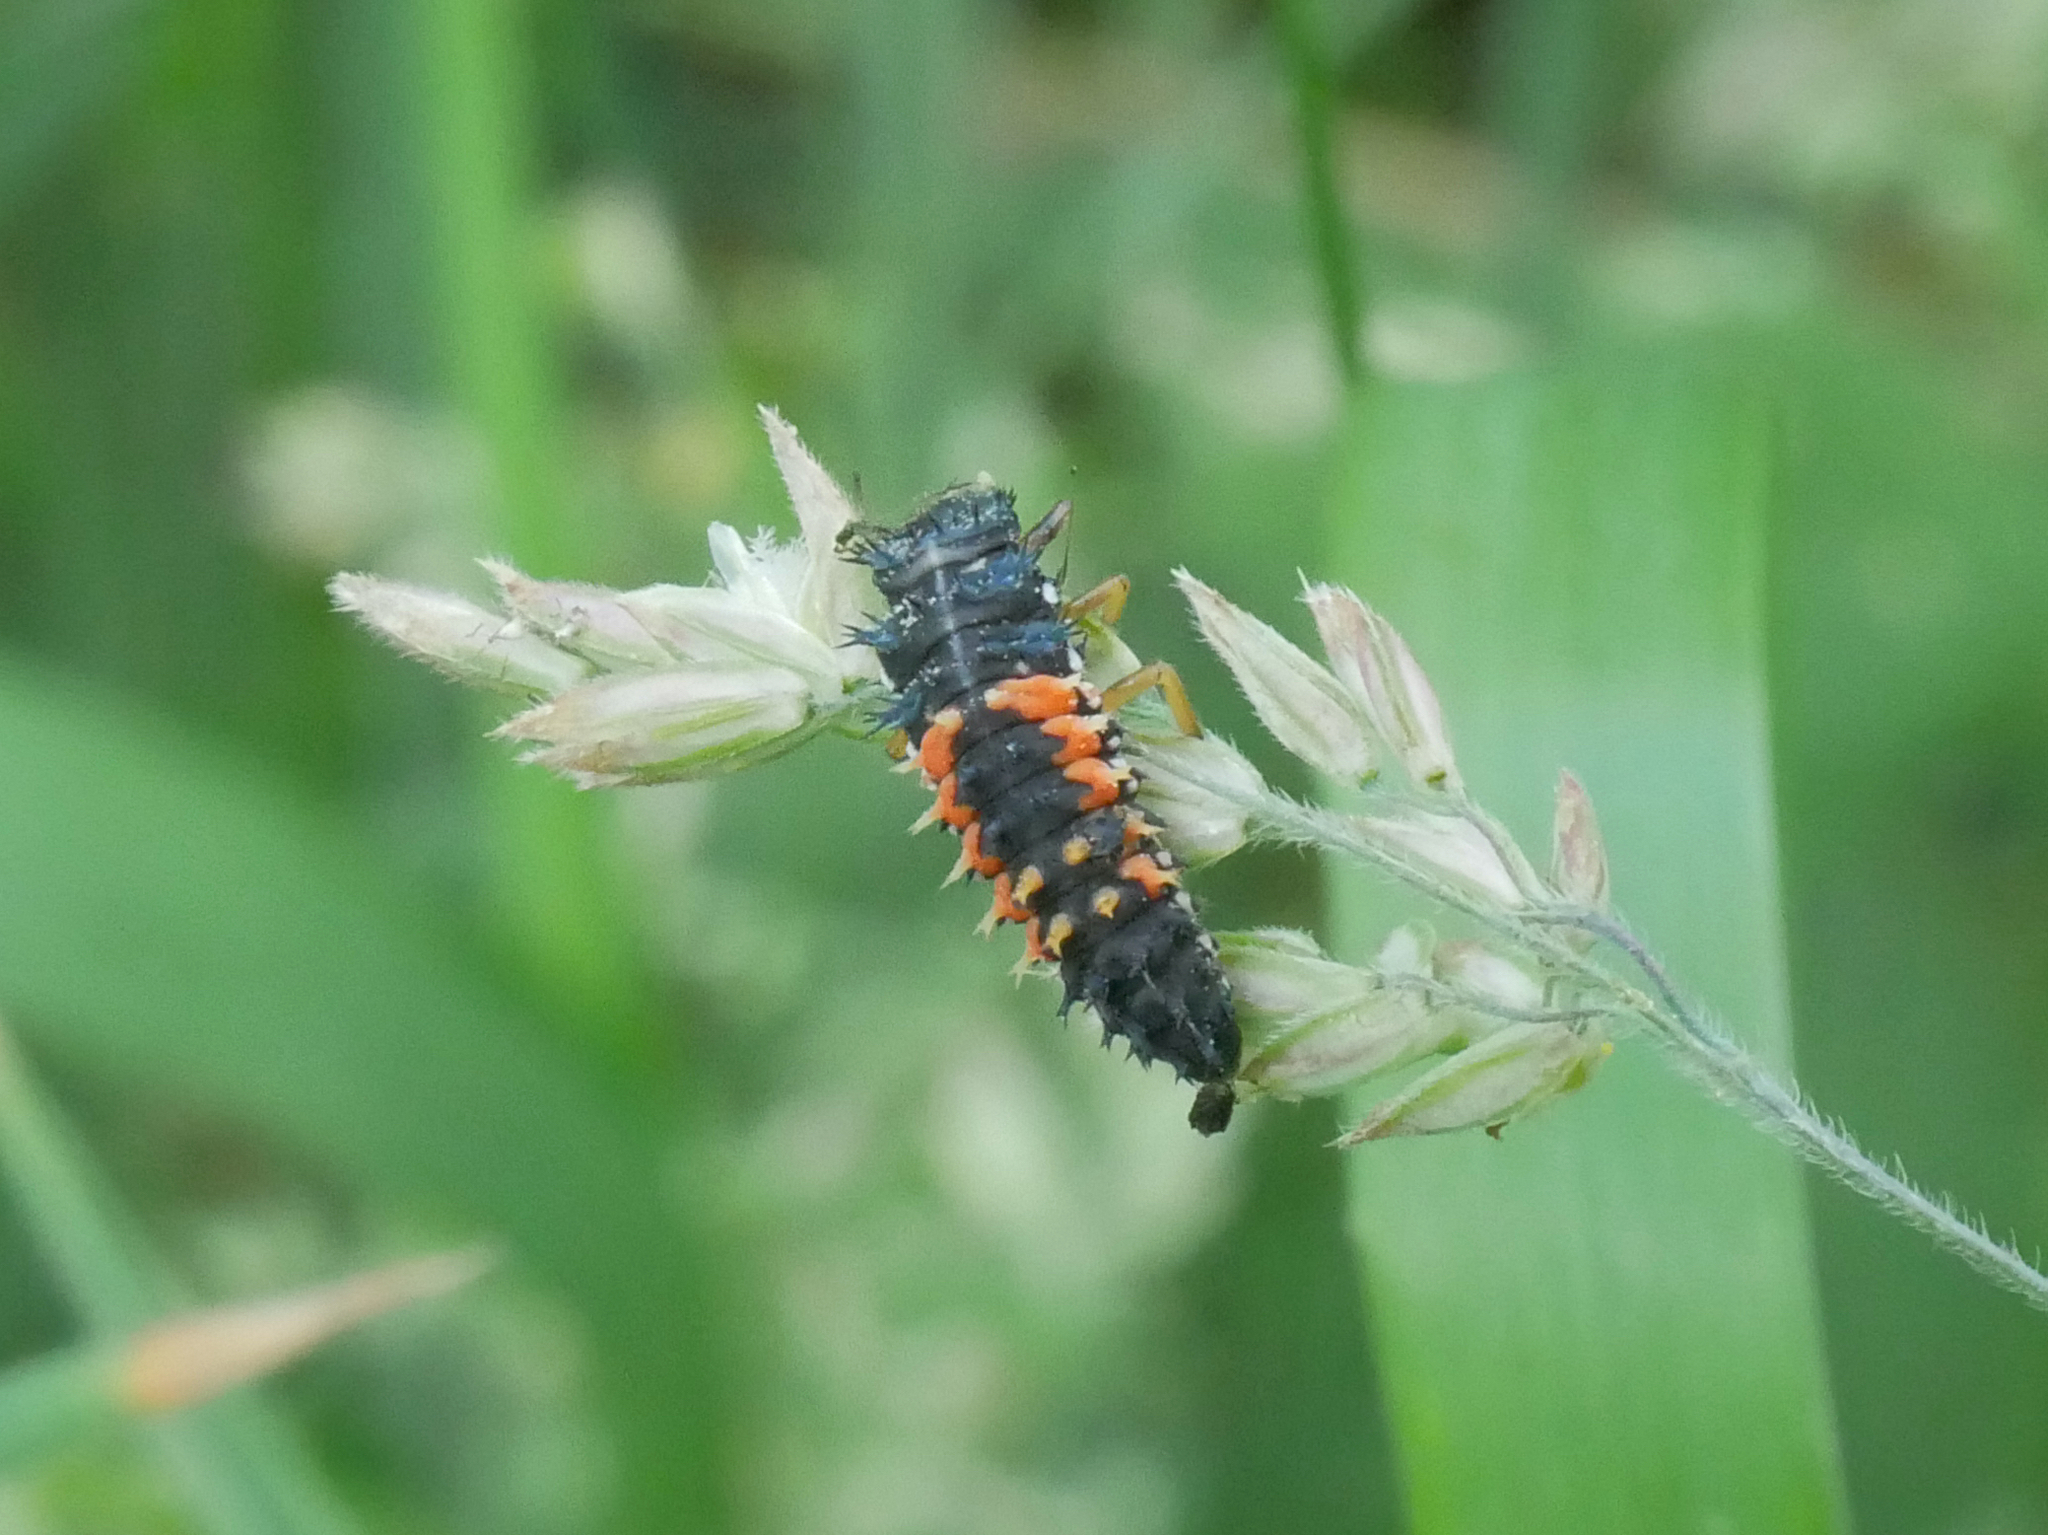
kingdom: Animalia
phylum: Arthropoda
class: Insecta
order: Coleoptera
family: Coccinellidae
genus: Harmonia
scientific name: Harmonia axyridis
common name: Harlequin ladybird
